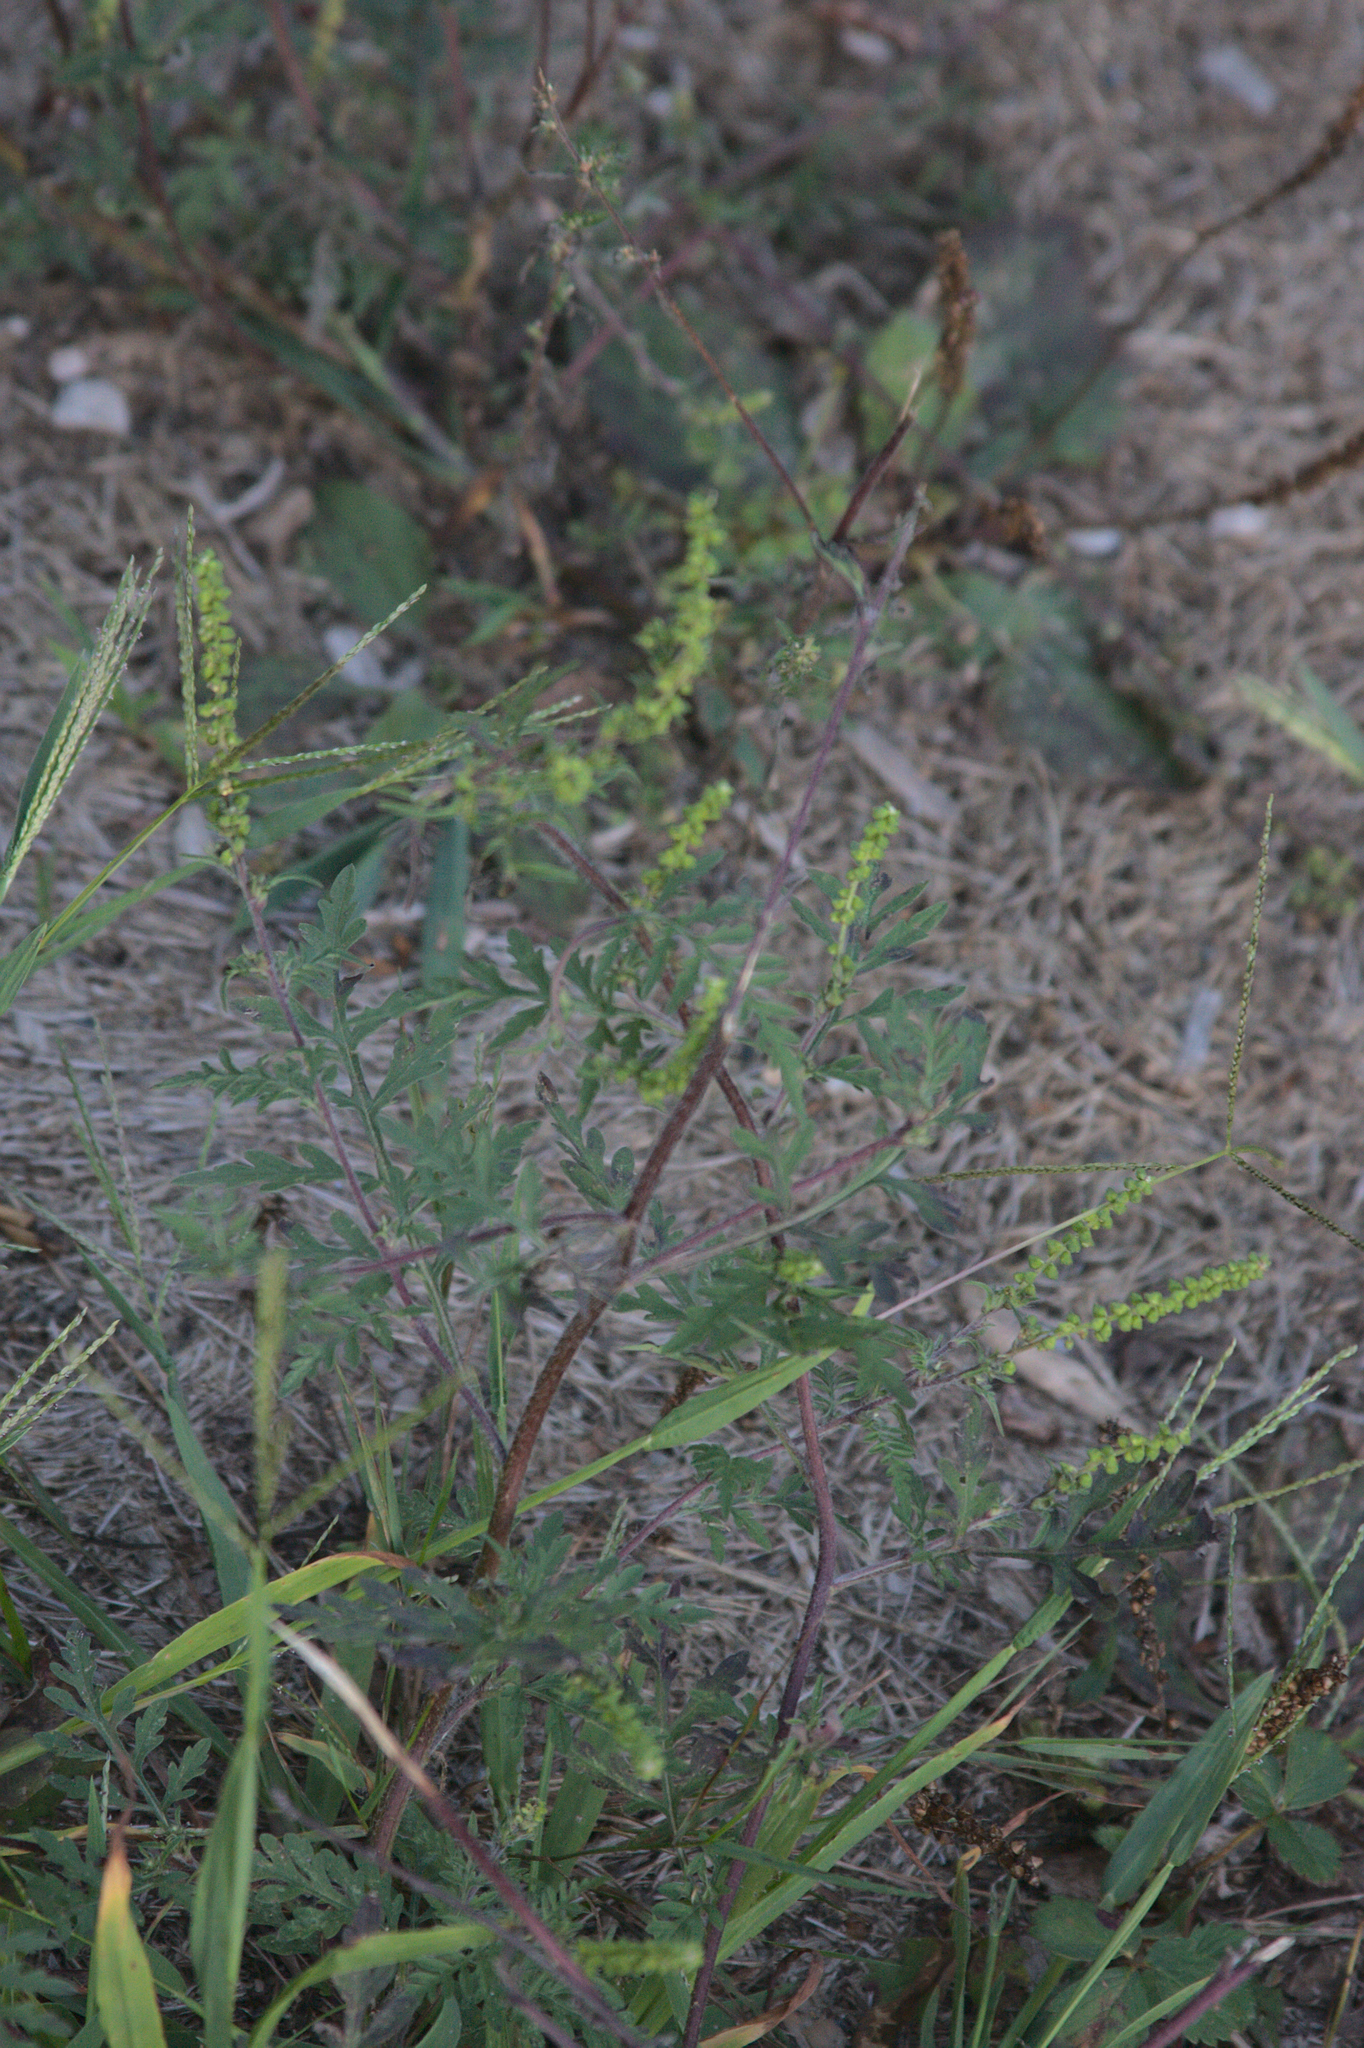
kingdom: Plantae
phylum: Tracheophyta
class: Magnoliopsida
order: Asterales
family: Asteraceae
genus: Ambrosia
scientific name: Ambrosia artemisiifolia
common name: Annual ragweed
